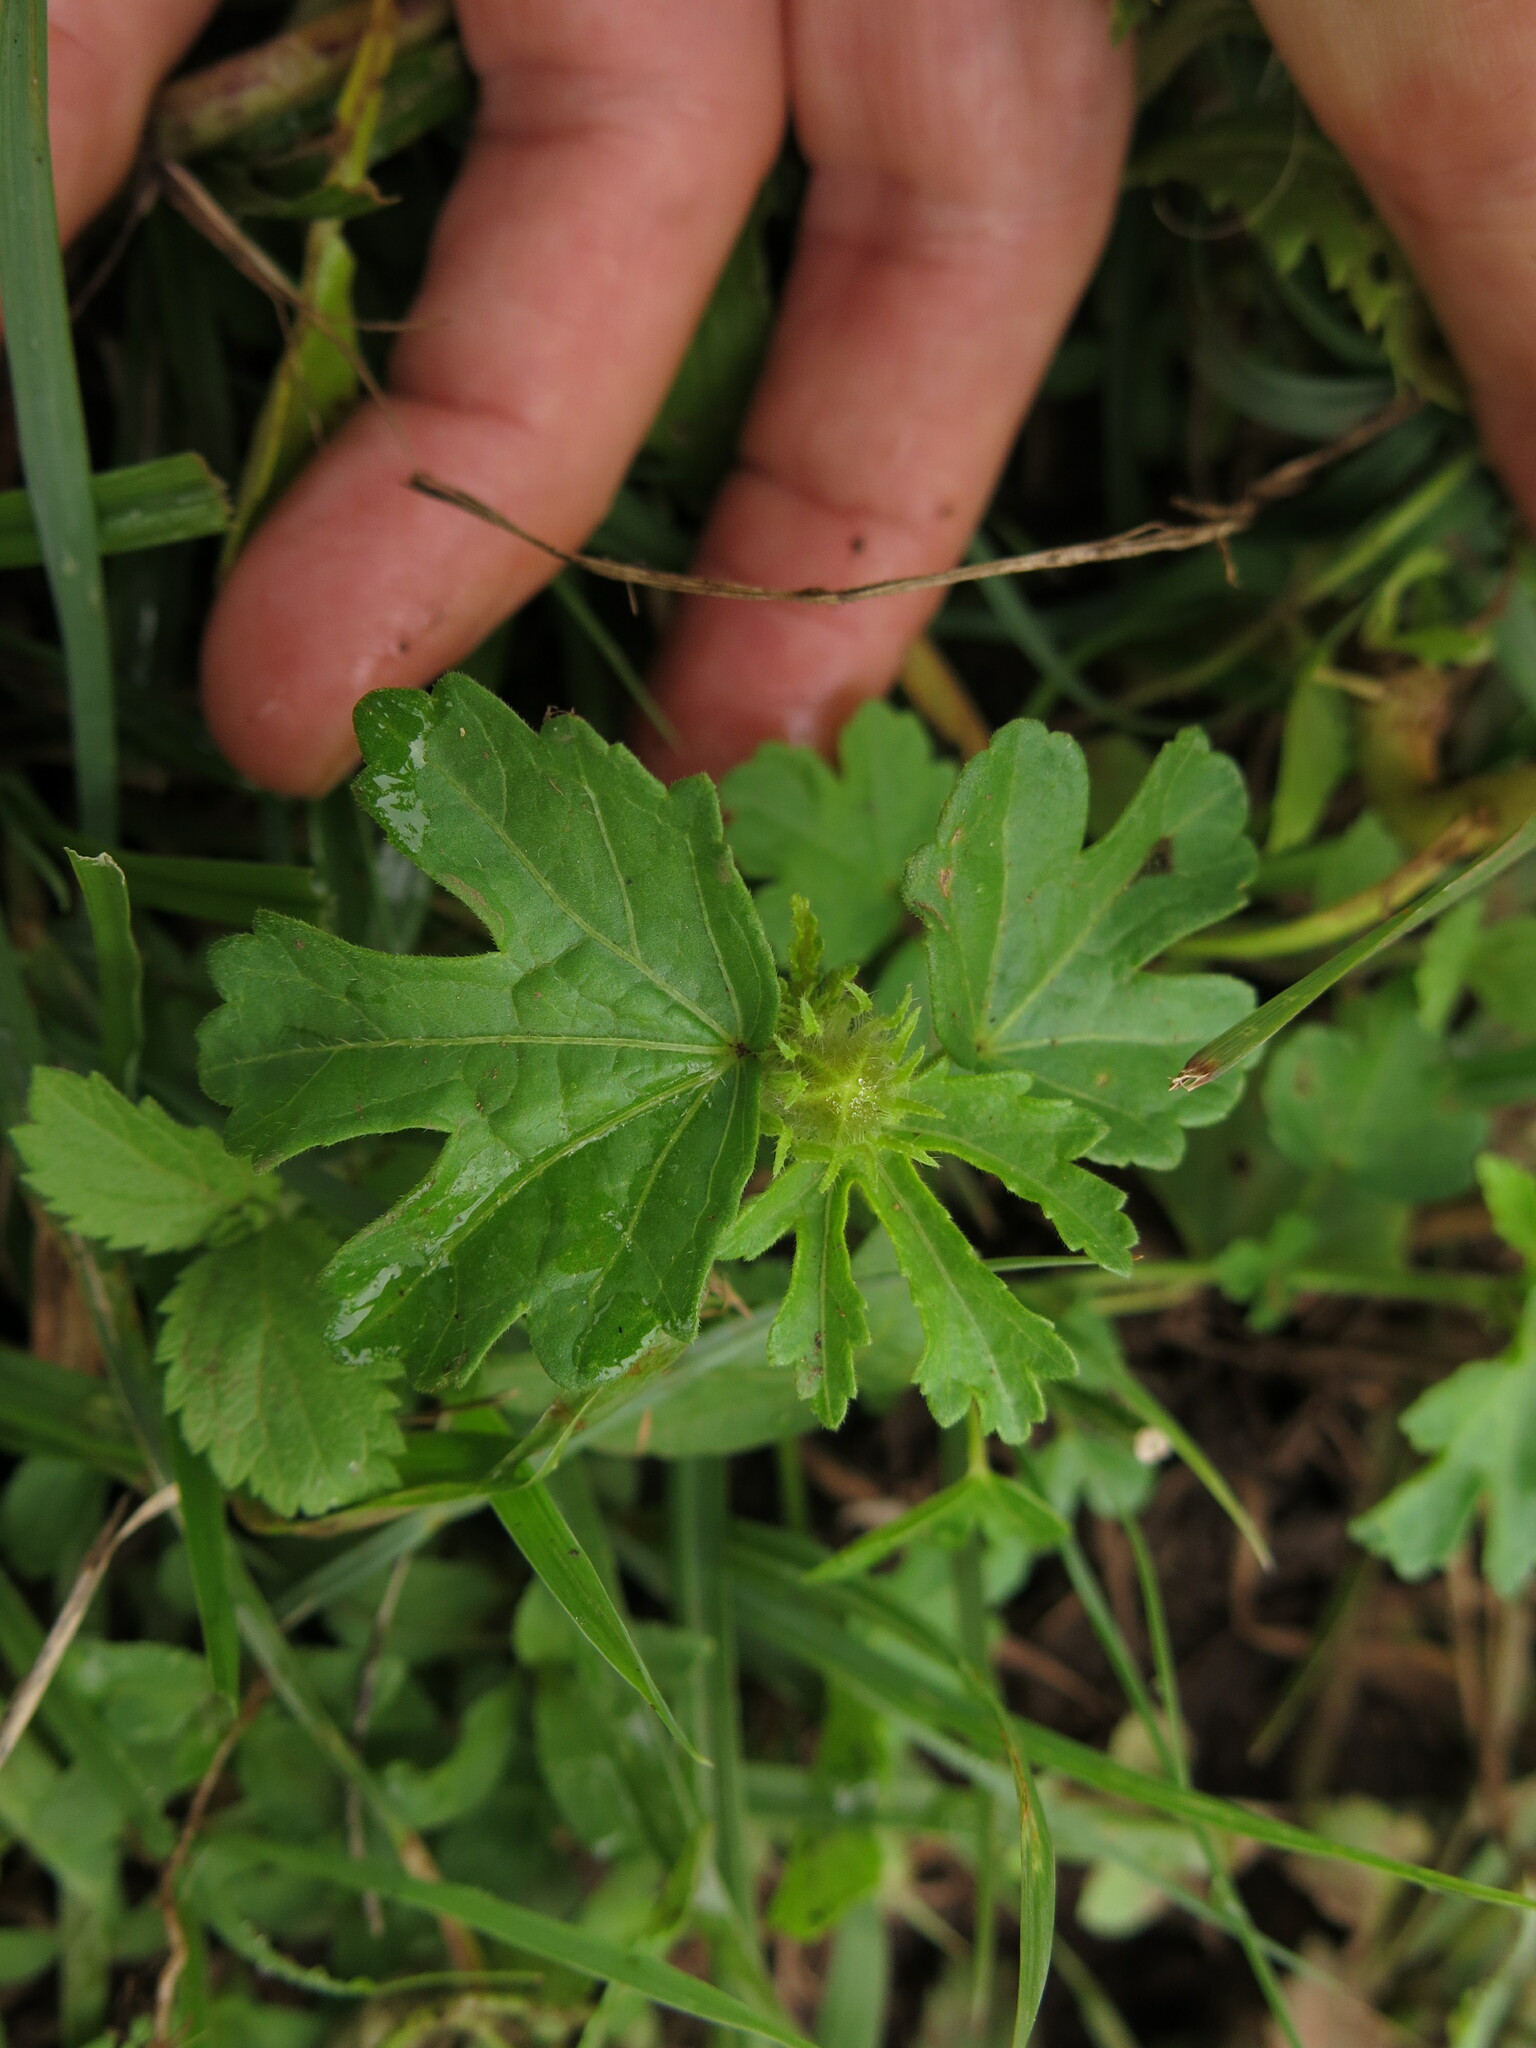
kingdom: Plantae
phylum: Tracheophyta
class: Magnoliopsida
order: Malvales
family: Malvaceae
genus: Hibiscus
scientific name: Hibiscus trionum
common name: Bladder ketmia
